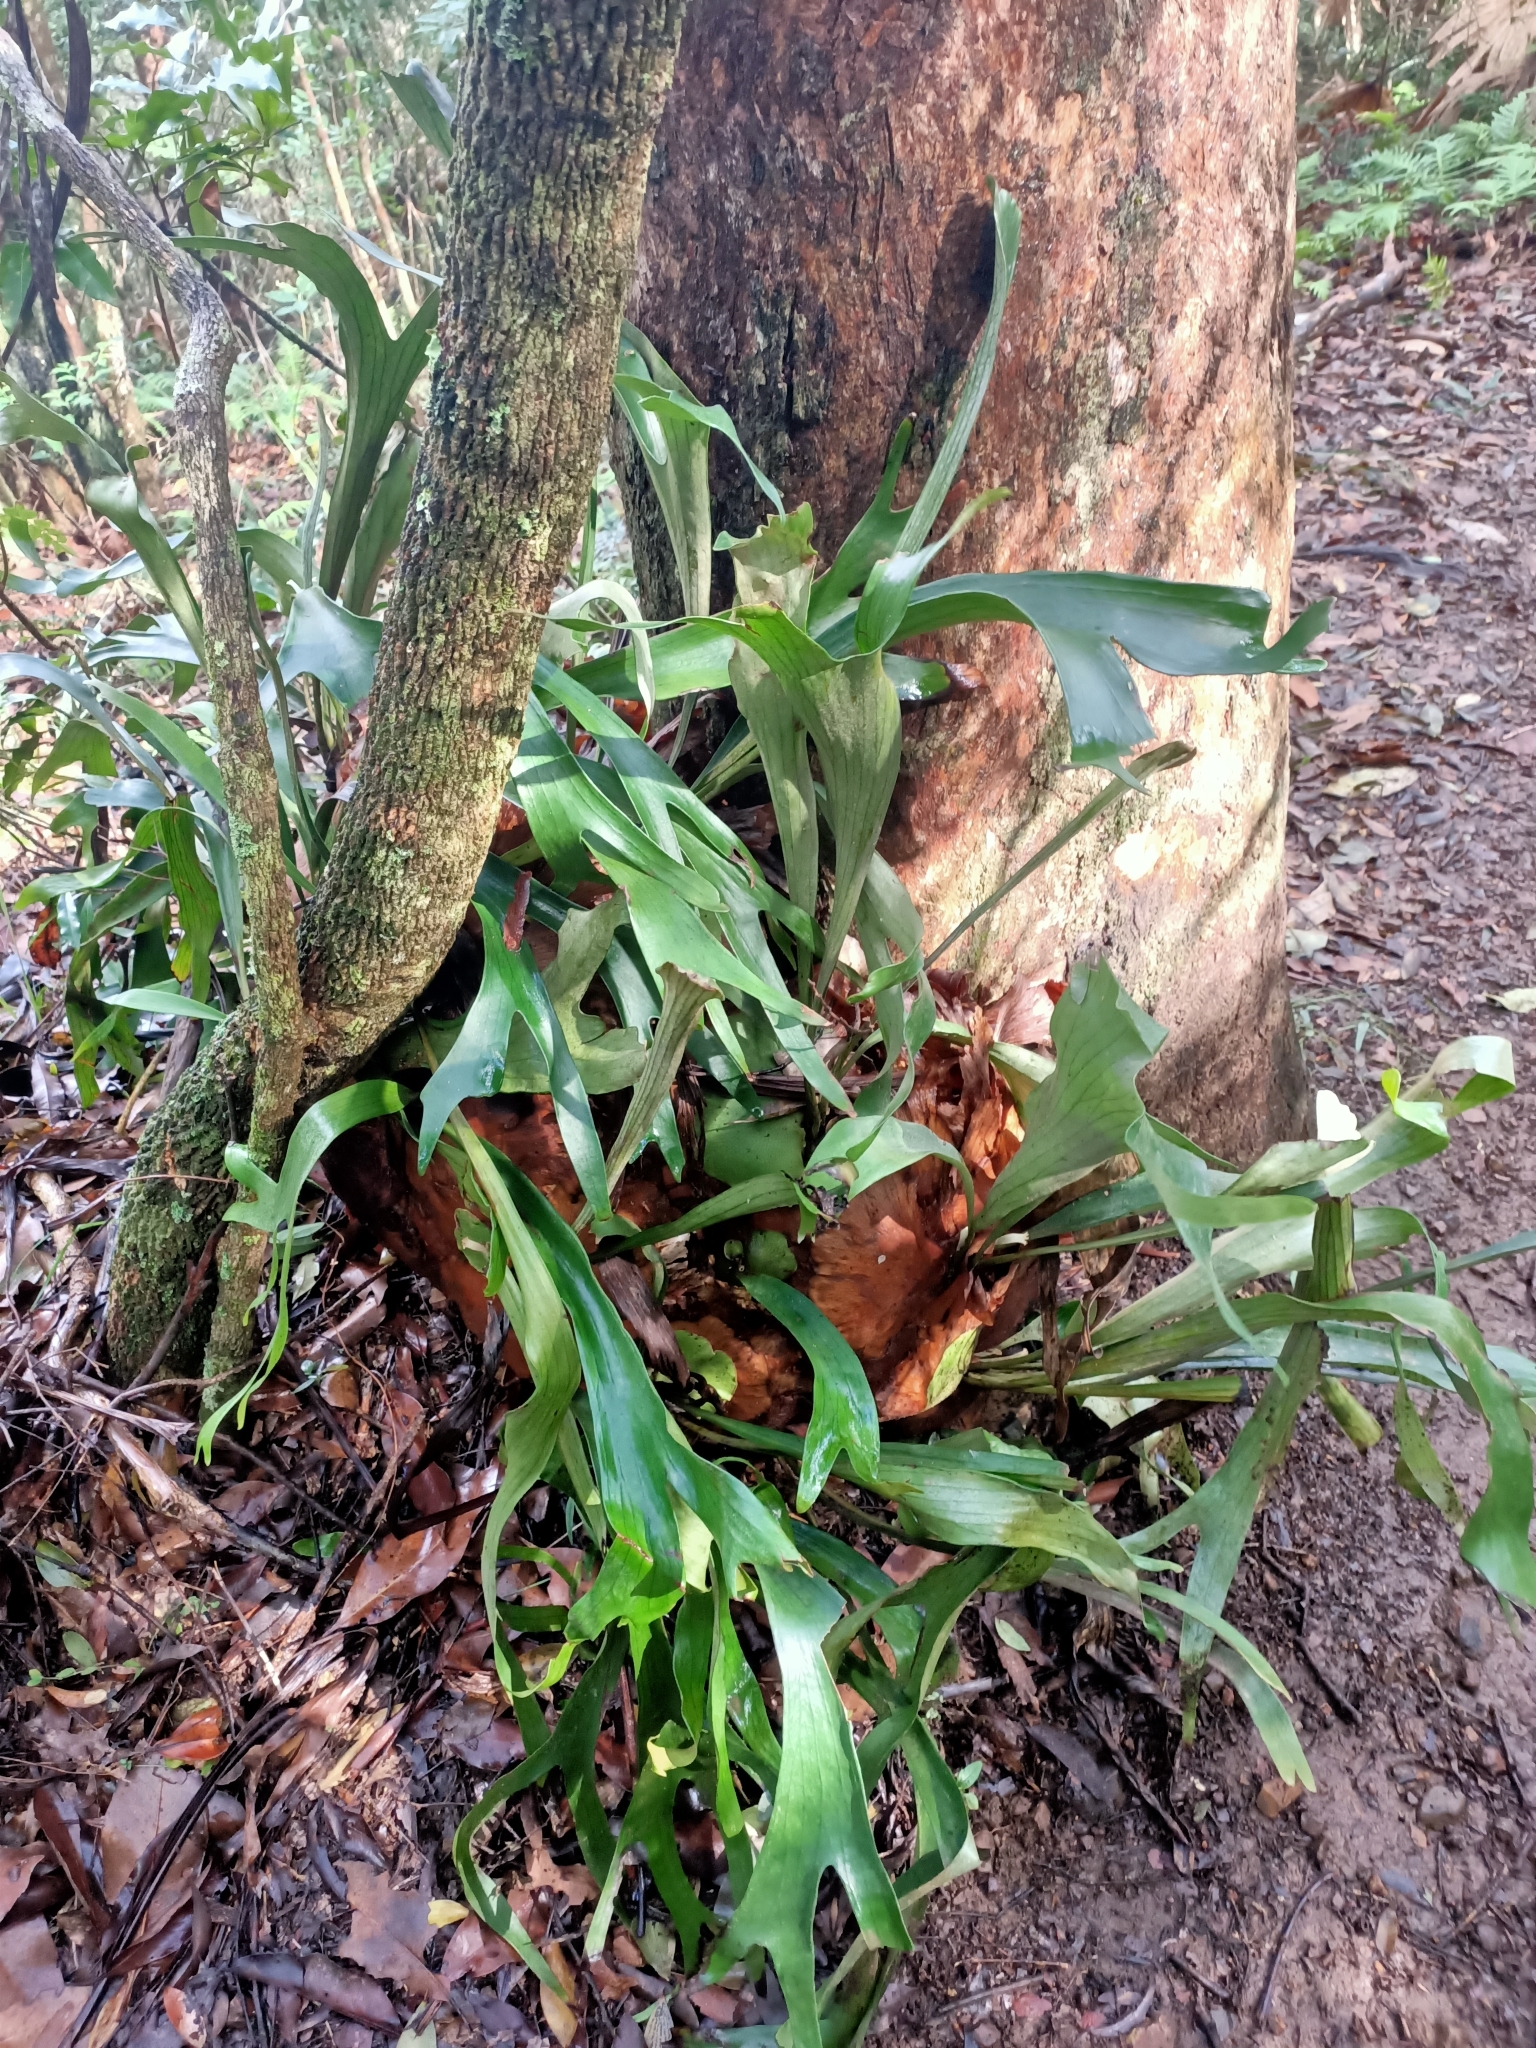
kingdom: Plantae
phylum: Tracheophyta
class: Polypodiopsida
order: Polypodiales
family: Polypodiaceae
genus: Platycerium
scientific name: Platycerium bifurcatum
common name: Elkhorn fern
